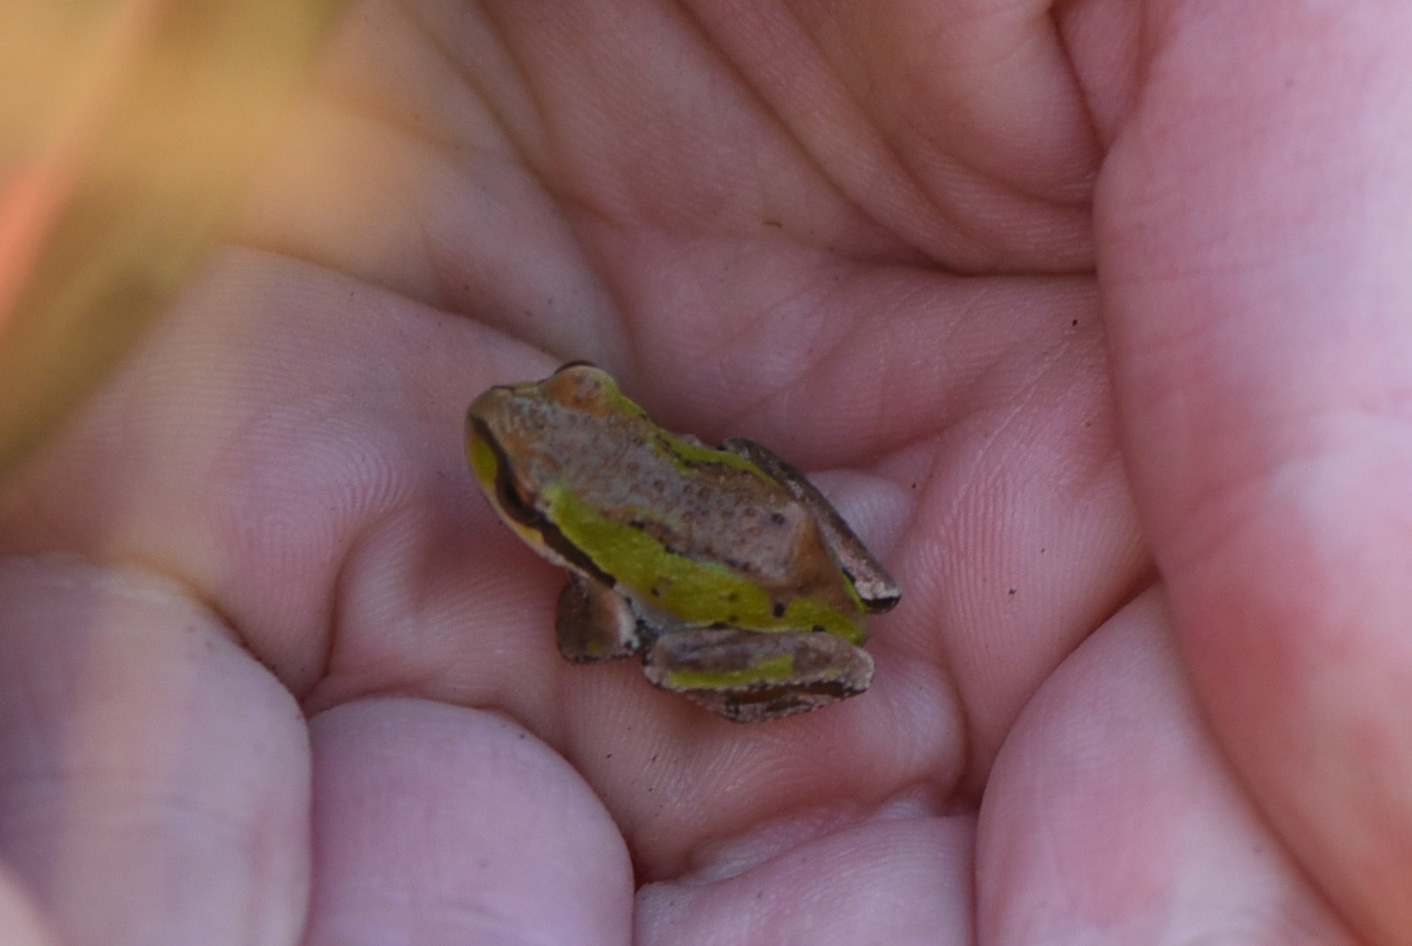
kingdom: Animalia
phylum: Chordata
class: Amphibia
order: Anura
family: Hylidae
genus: Pseudacris
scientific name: Pseudacris regilla
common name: Pacific chorus frog
